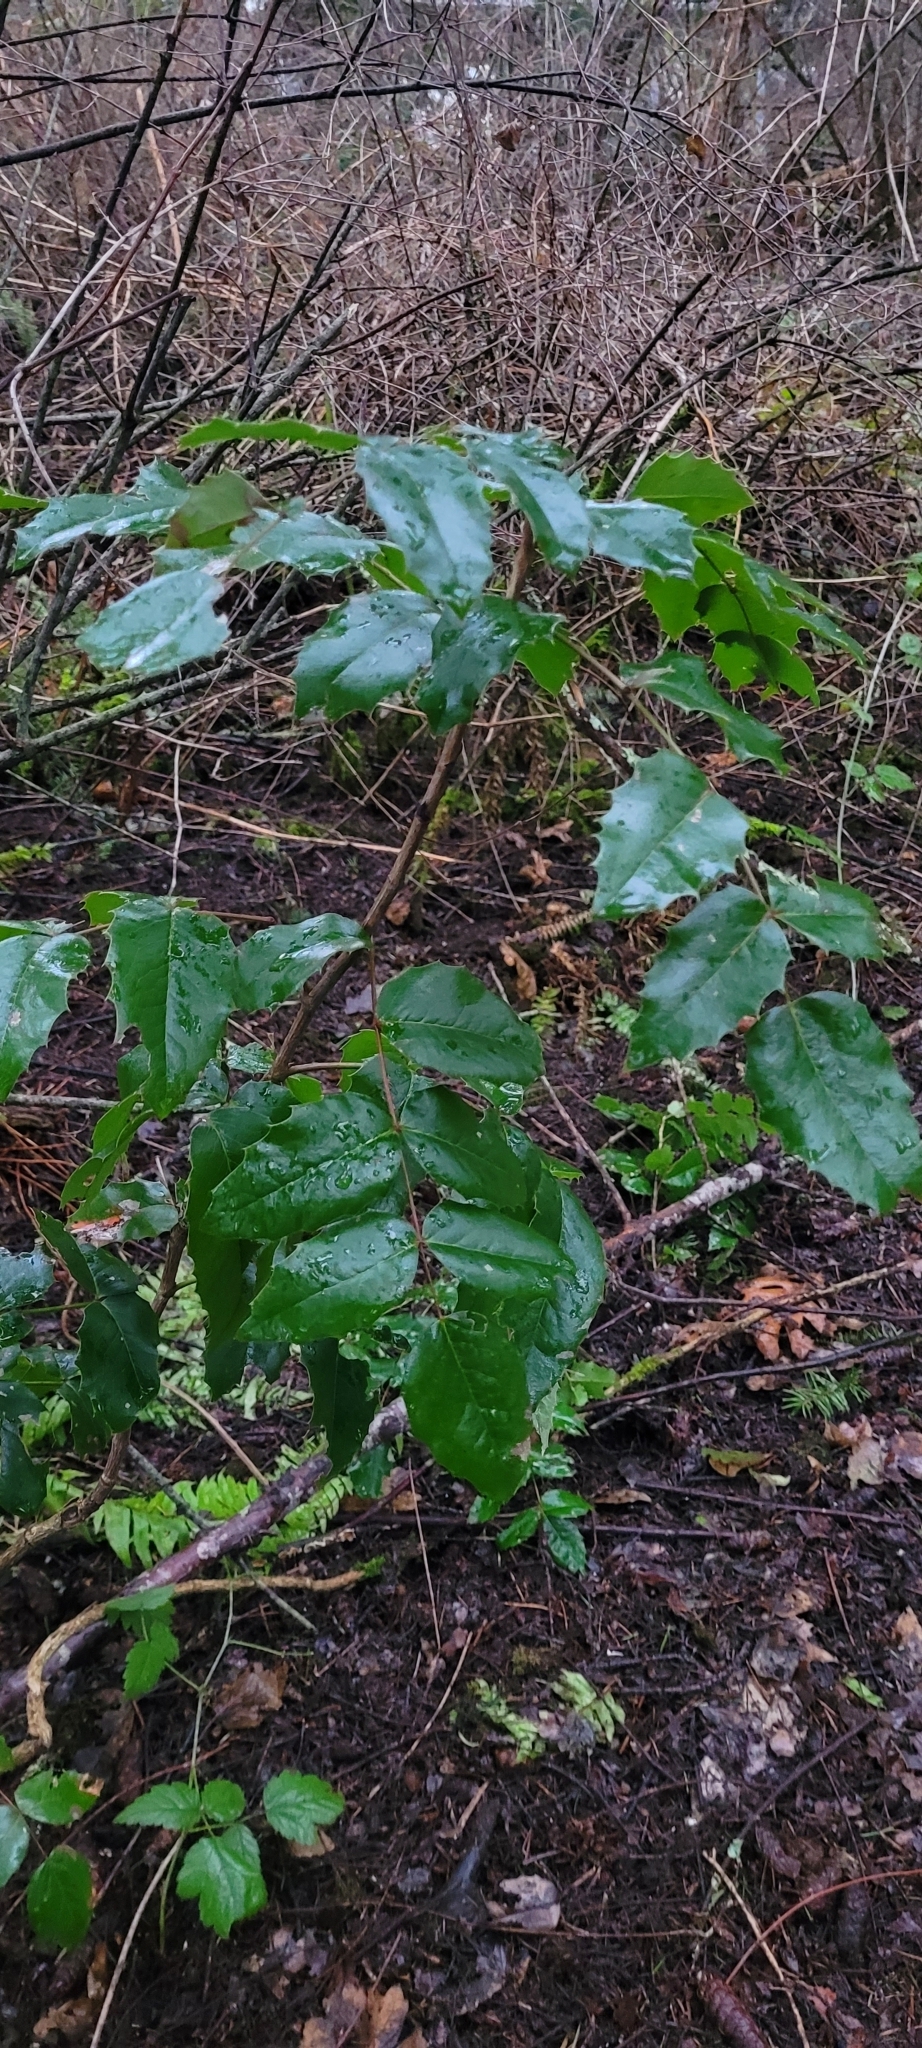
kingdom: Plantae
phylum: Tracheophyta
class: Magnoliopsida
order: Ranunculales
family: Berberidaceae
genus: Mahonia
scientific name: Mahonia aquifolium
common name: Oregon-grape
